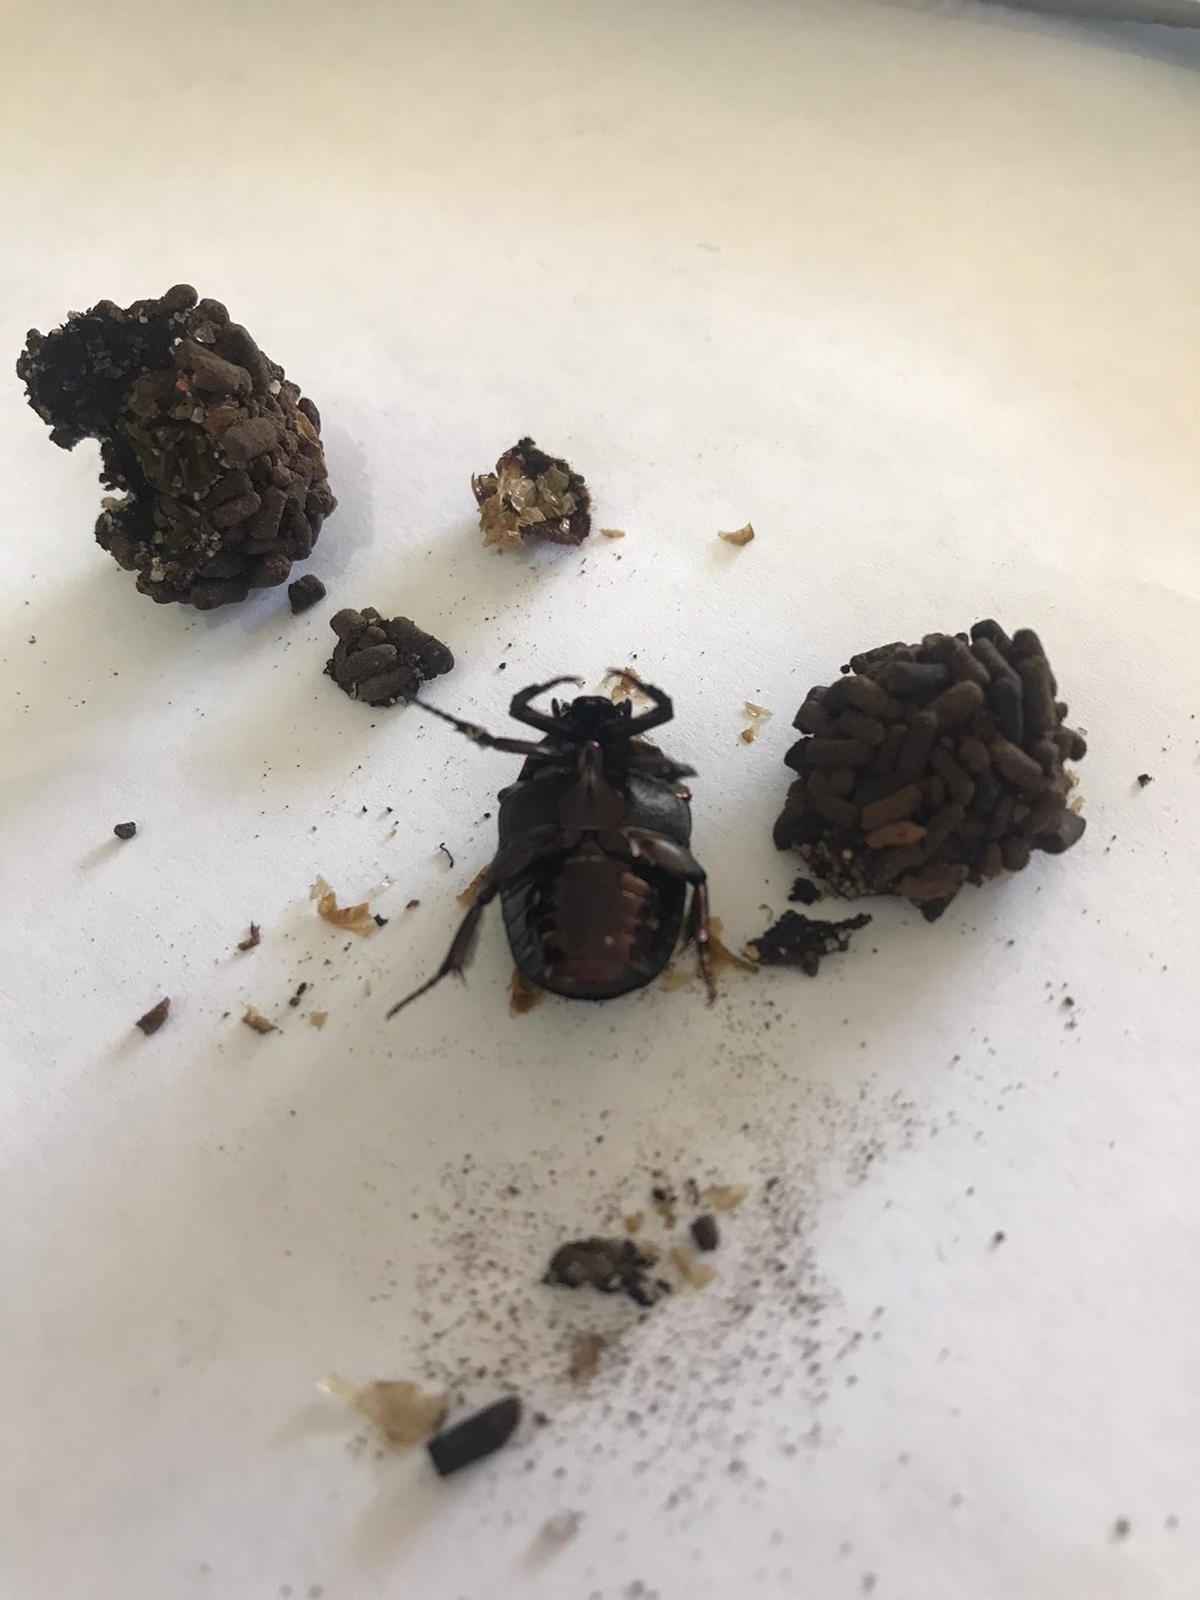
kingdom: Animalia
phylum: Arthropoda
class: Insecta
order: Coleoptera
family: Scarabaeidae
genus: Gymnetis
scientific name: Gymnetis chalcipes
